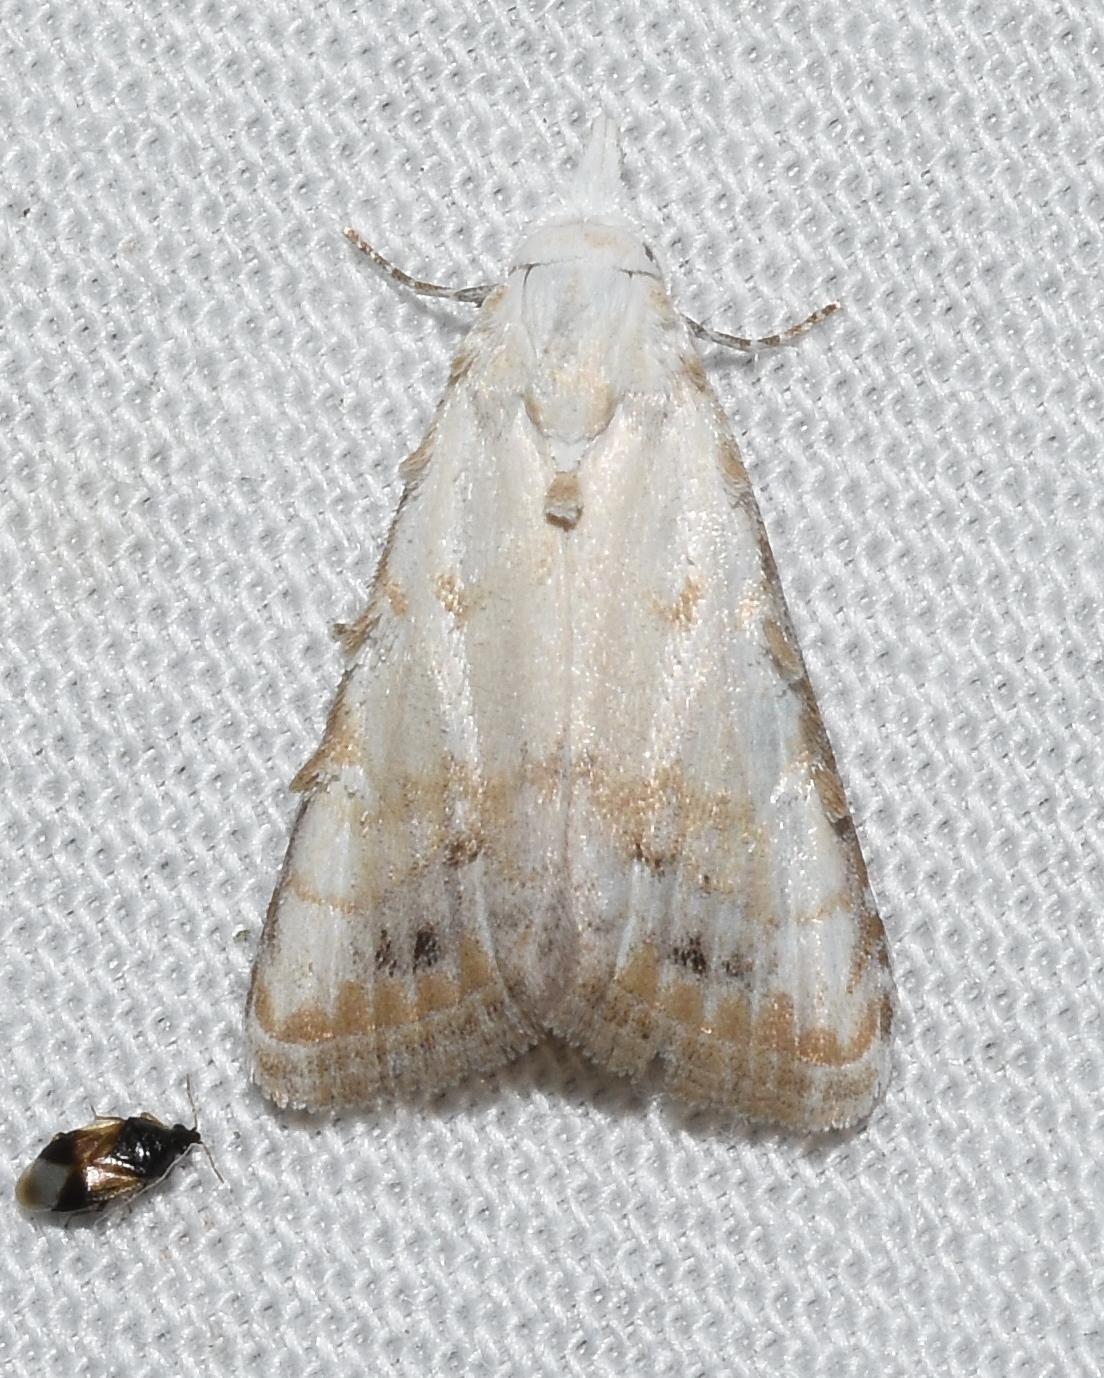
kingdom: Animalia
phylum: Arthropoda
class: Insecta
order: Lepidoptera
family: Nolidae
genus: Nola
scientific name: Nola cereella
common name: Sorghum webworm moth
